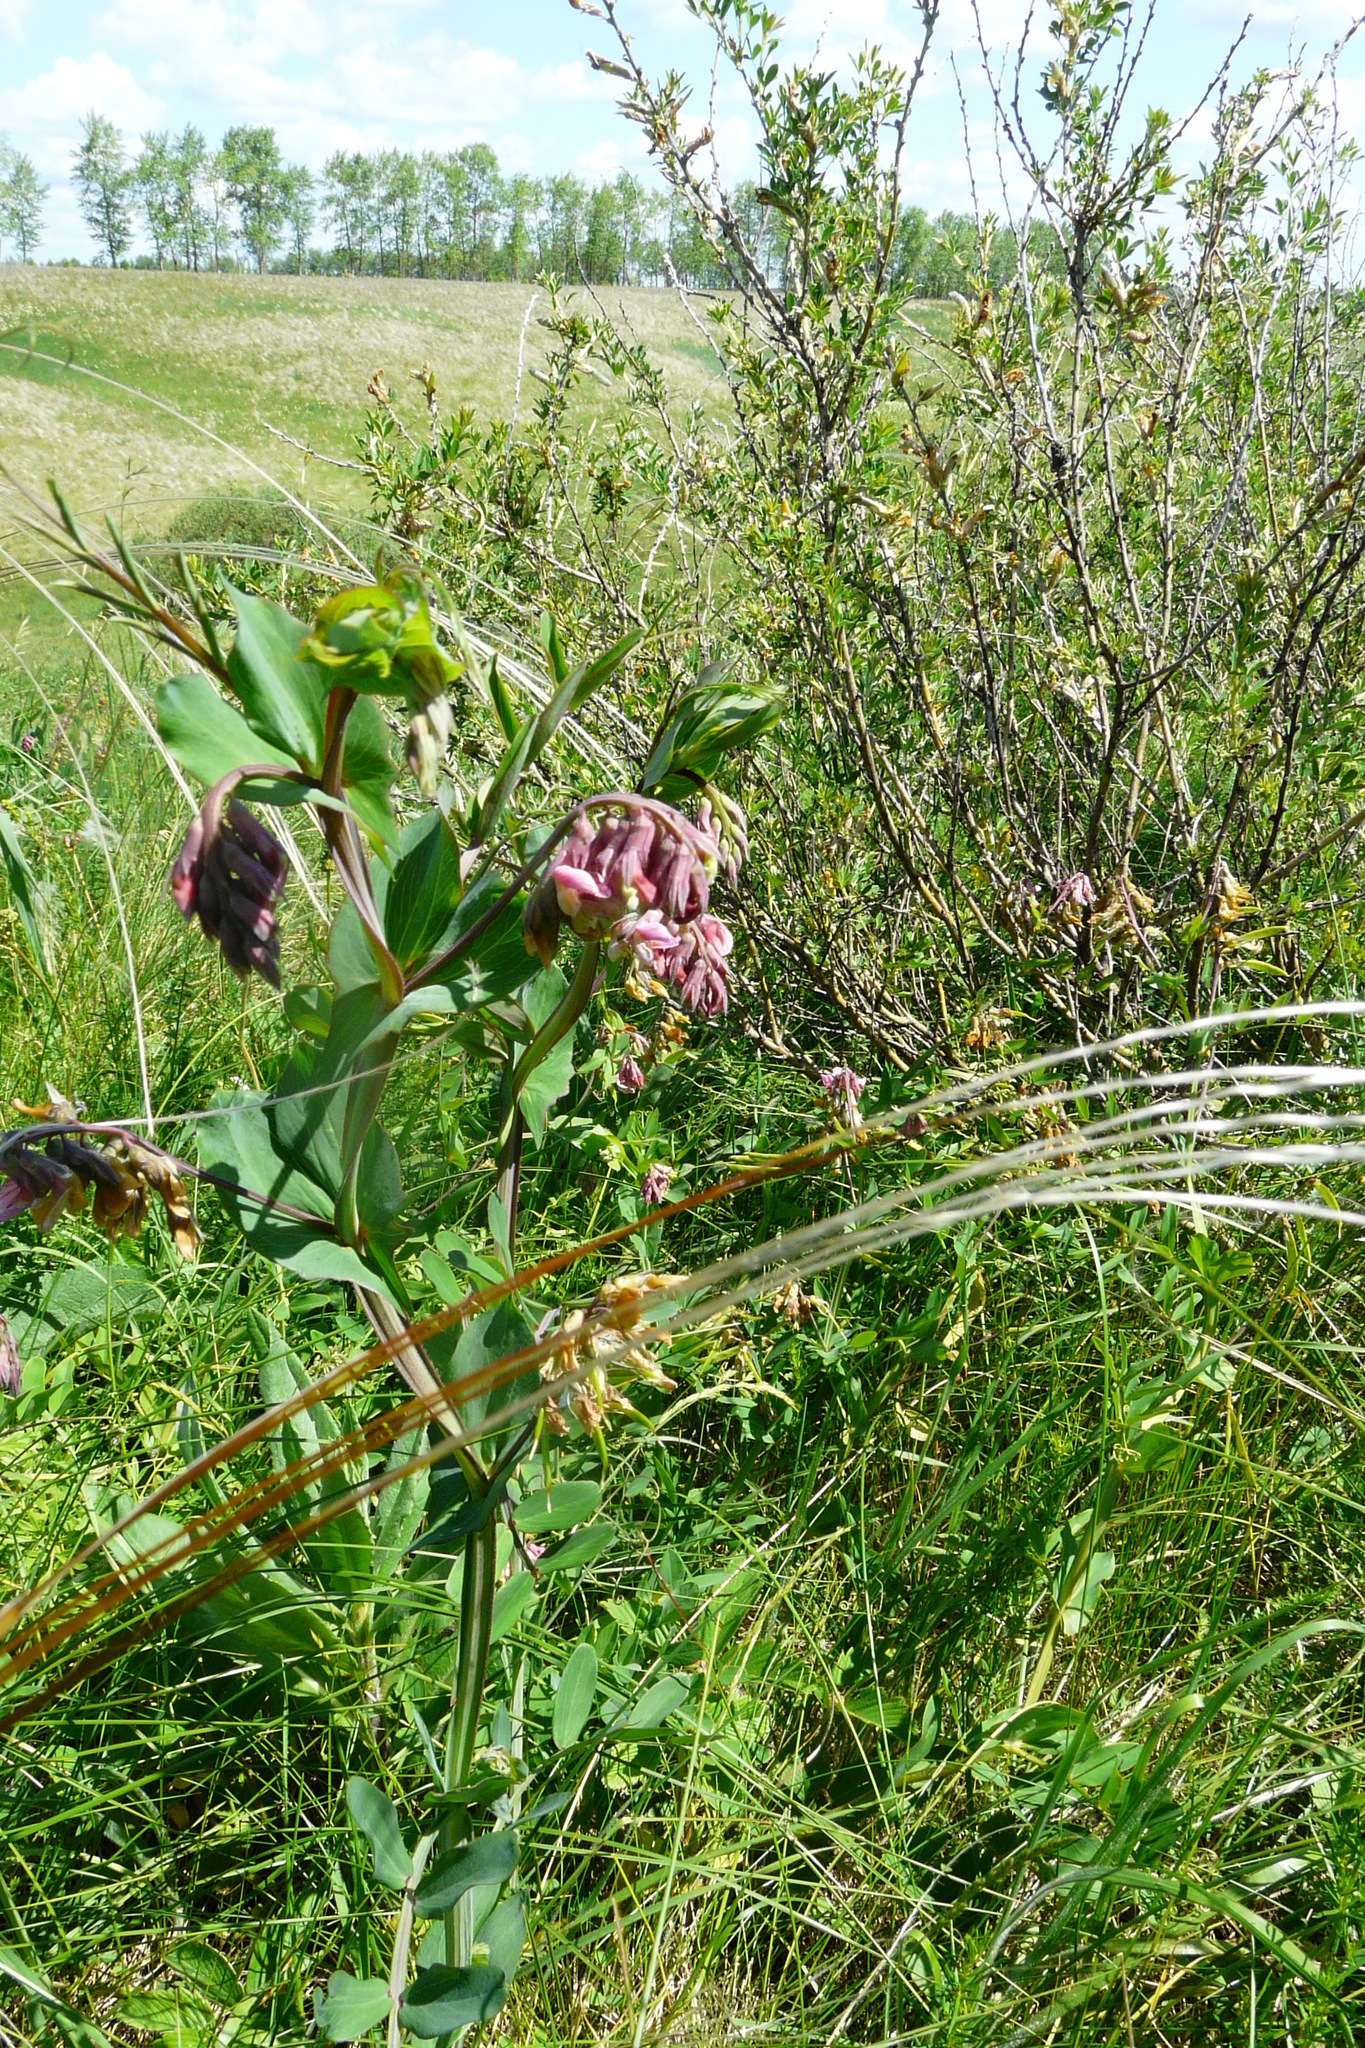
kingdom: Plantae
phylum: Tracheophyta
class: Magnoliopsida
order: Fabales
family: Fabaceae
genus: Lathyrus
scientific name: Lathyrus pisiformis
